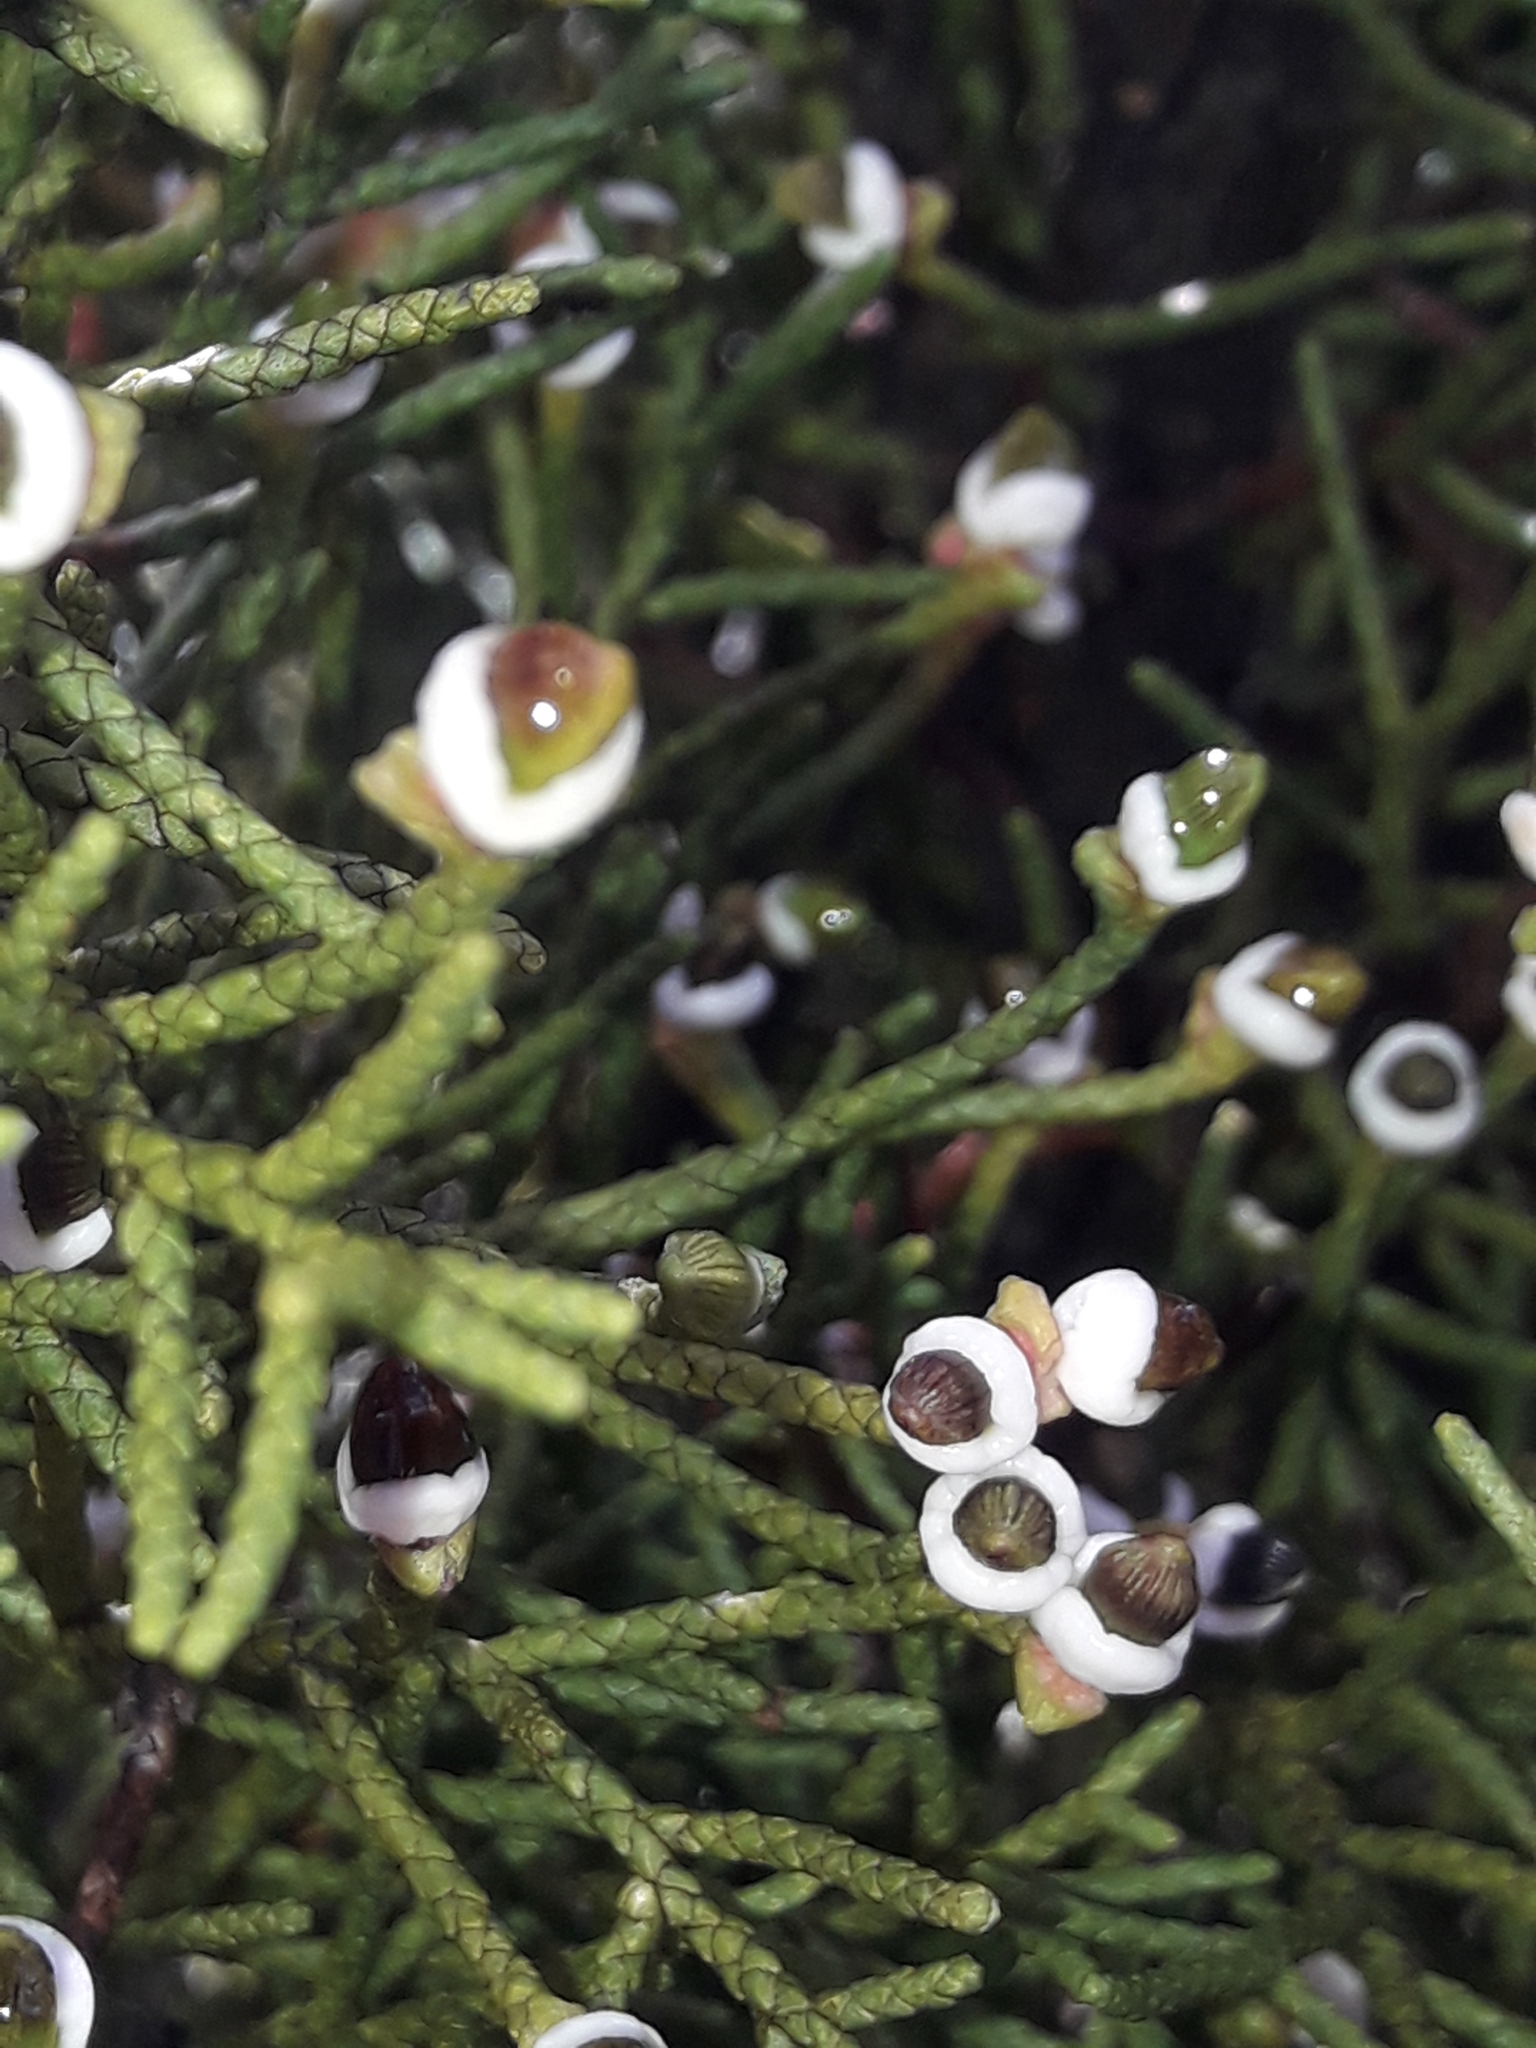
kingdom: Plantae
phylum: Tracheophyta
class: Pinopsida
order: Pinales
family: Podocarpaceae
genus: Halocarpus
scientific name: Halocarpus bidwillii
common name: Bog pine
